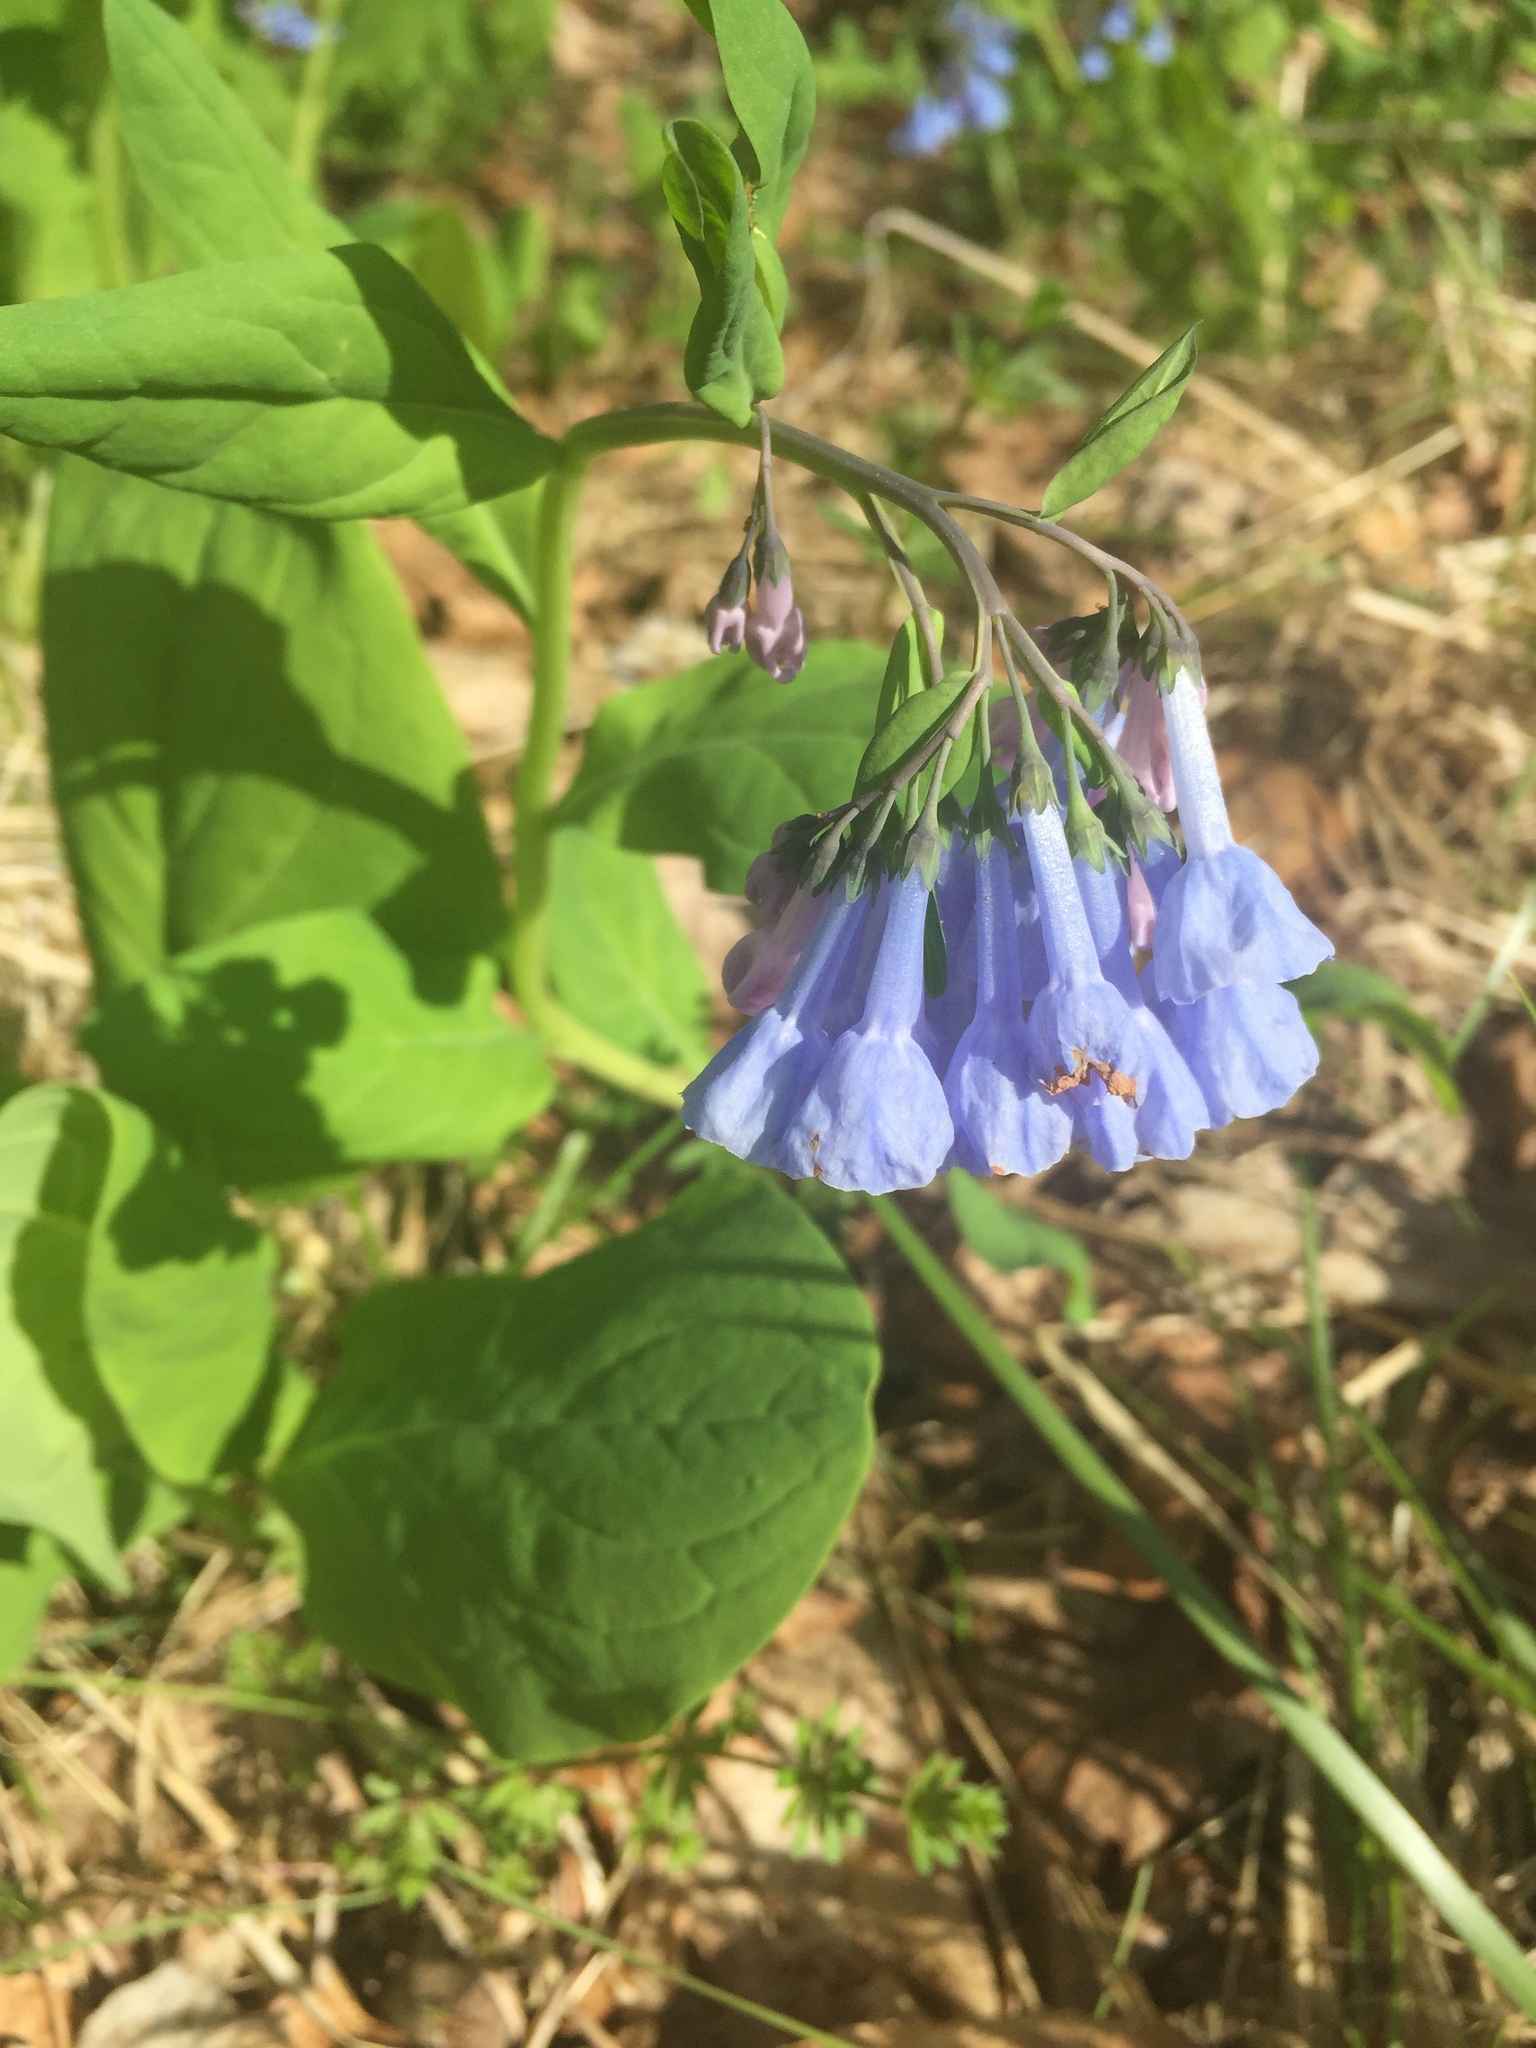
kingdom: Plantae
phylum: Tracheophyta
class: Magnoliopsida
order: Boraginales
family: Boraginaceae
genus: Mertensia
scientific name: Mertensia virginica
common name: Virginia bluebells
